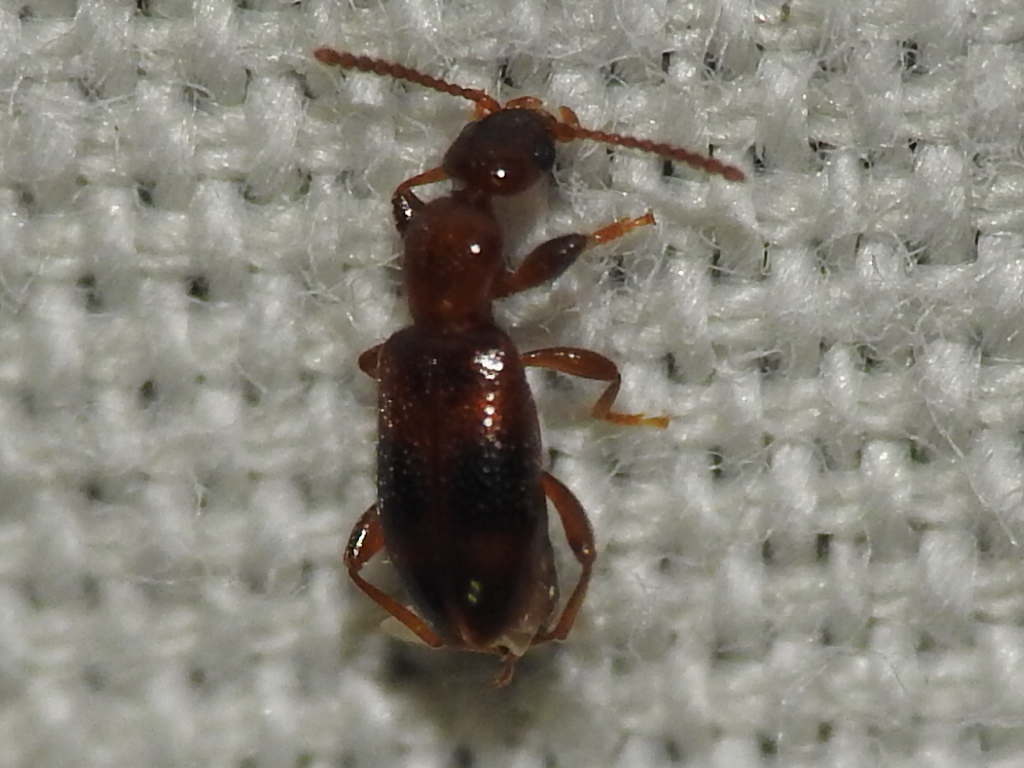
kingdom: Animalia
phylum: Arthropoda
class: Insecta
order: Coleoptera
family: Anthicidae
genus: Vacusus
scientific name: Vacusus vicinus
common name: Antlike flower beetle
